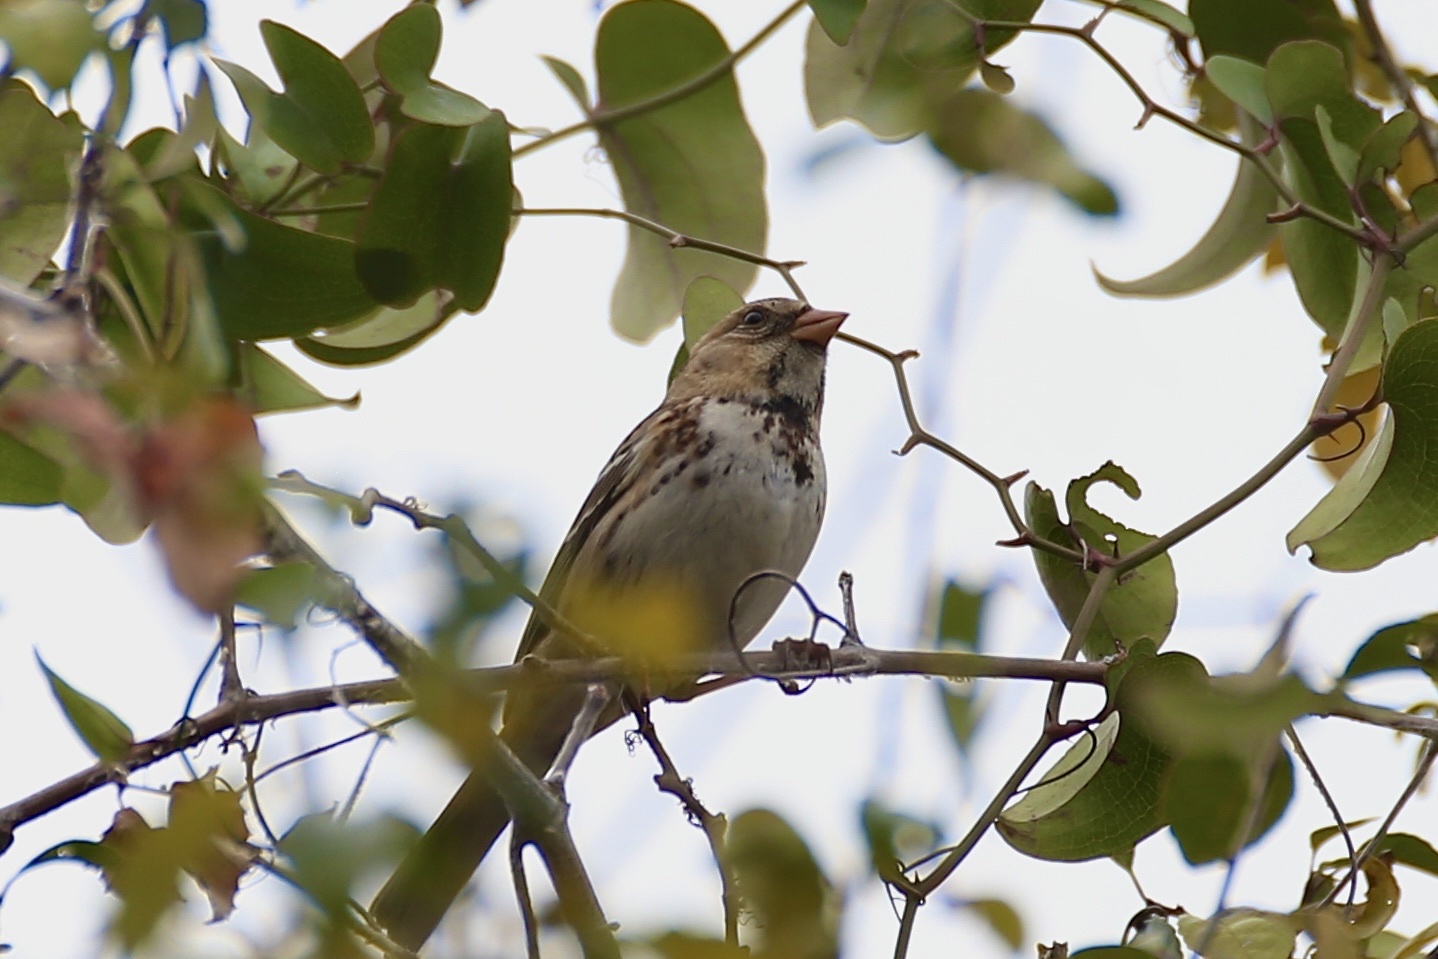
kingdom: Animalia
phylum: Chordata
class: Aves
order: Passeriformes
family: Passerellidae
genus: Zonotrichia
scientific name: Zonotrichia querula
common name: Harris's sparrow
